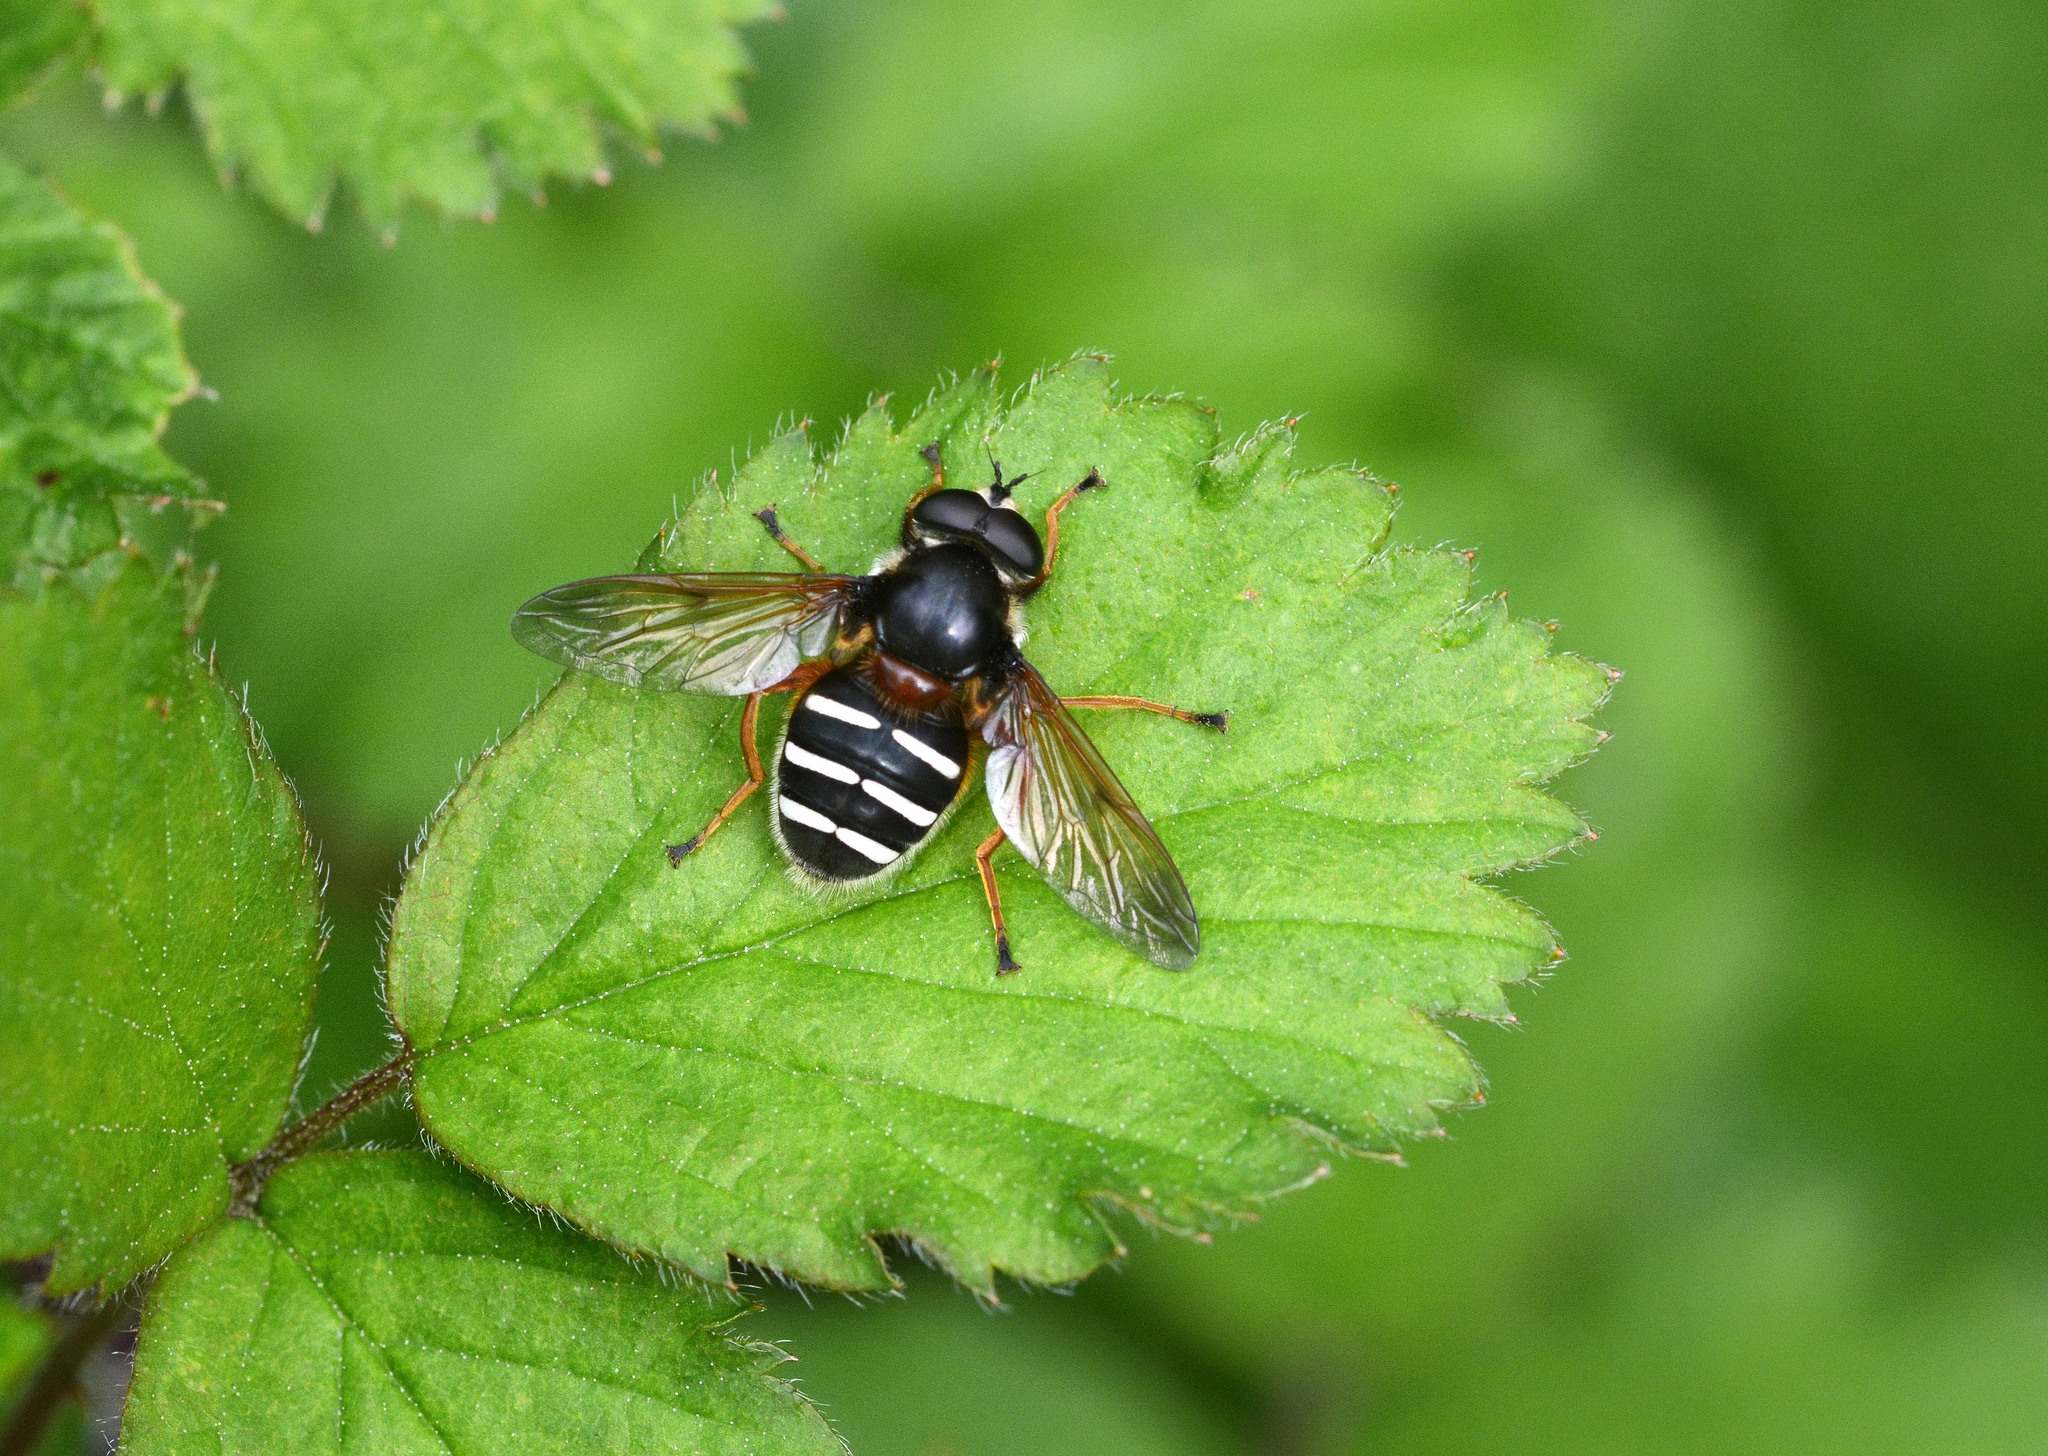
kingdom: Animalia
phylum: Arthropoda
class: Insecta
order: Diptera
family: Syrphidae
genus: Sericomyia
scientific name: Sericomyia lappona
